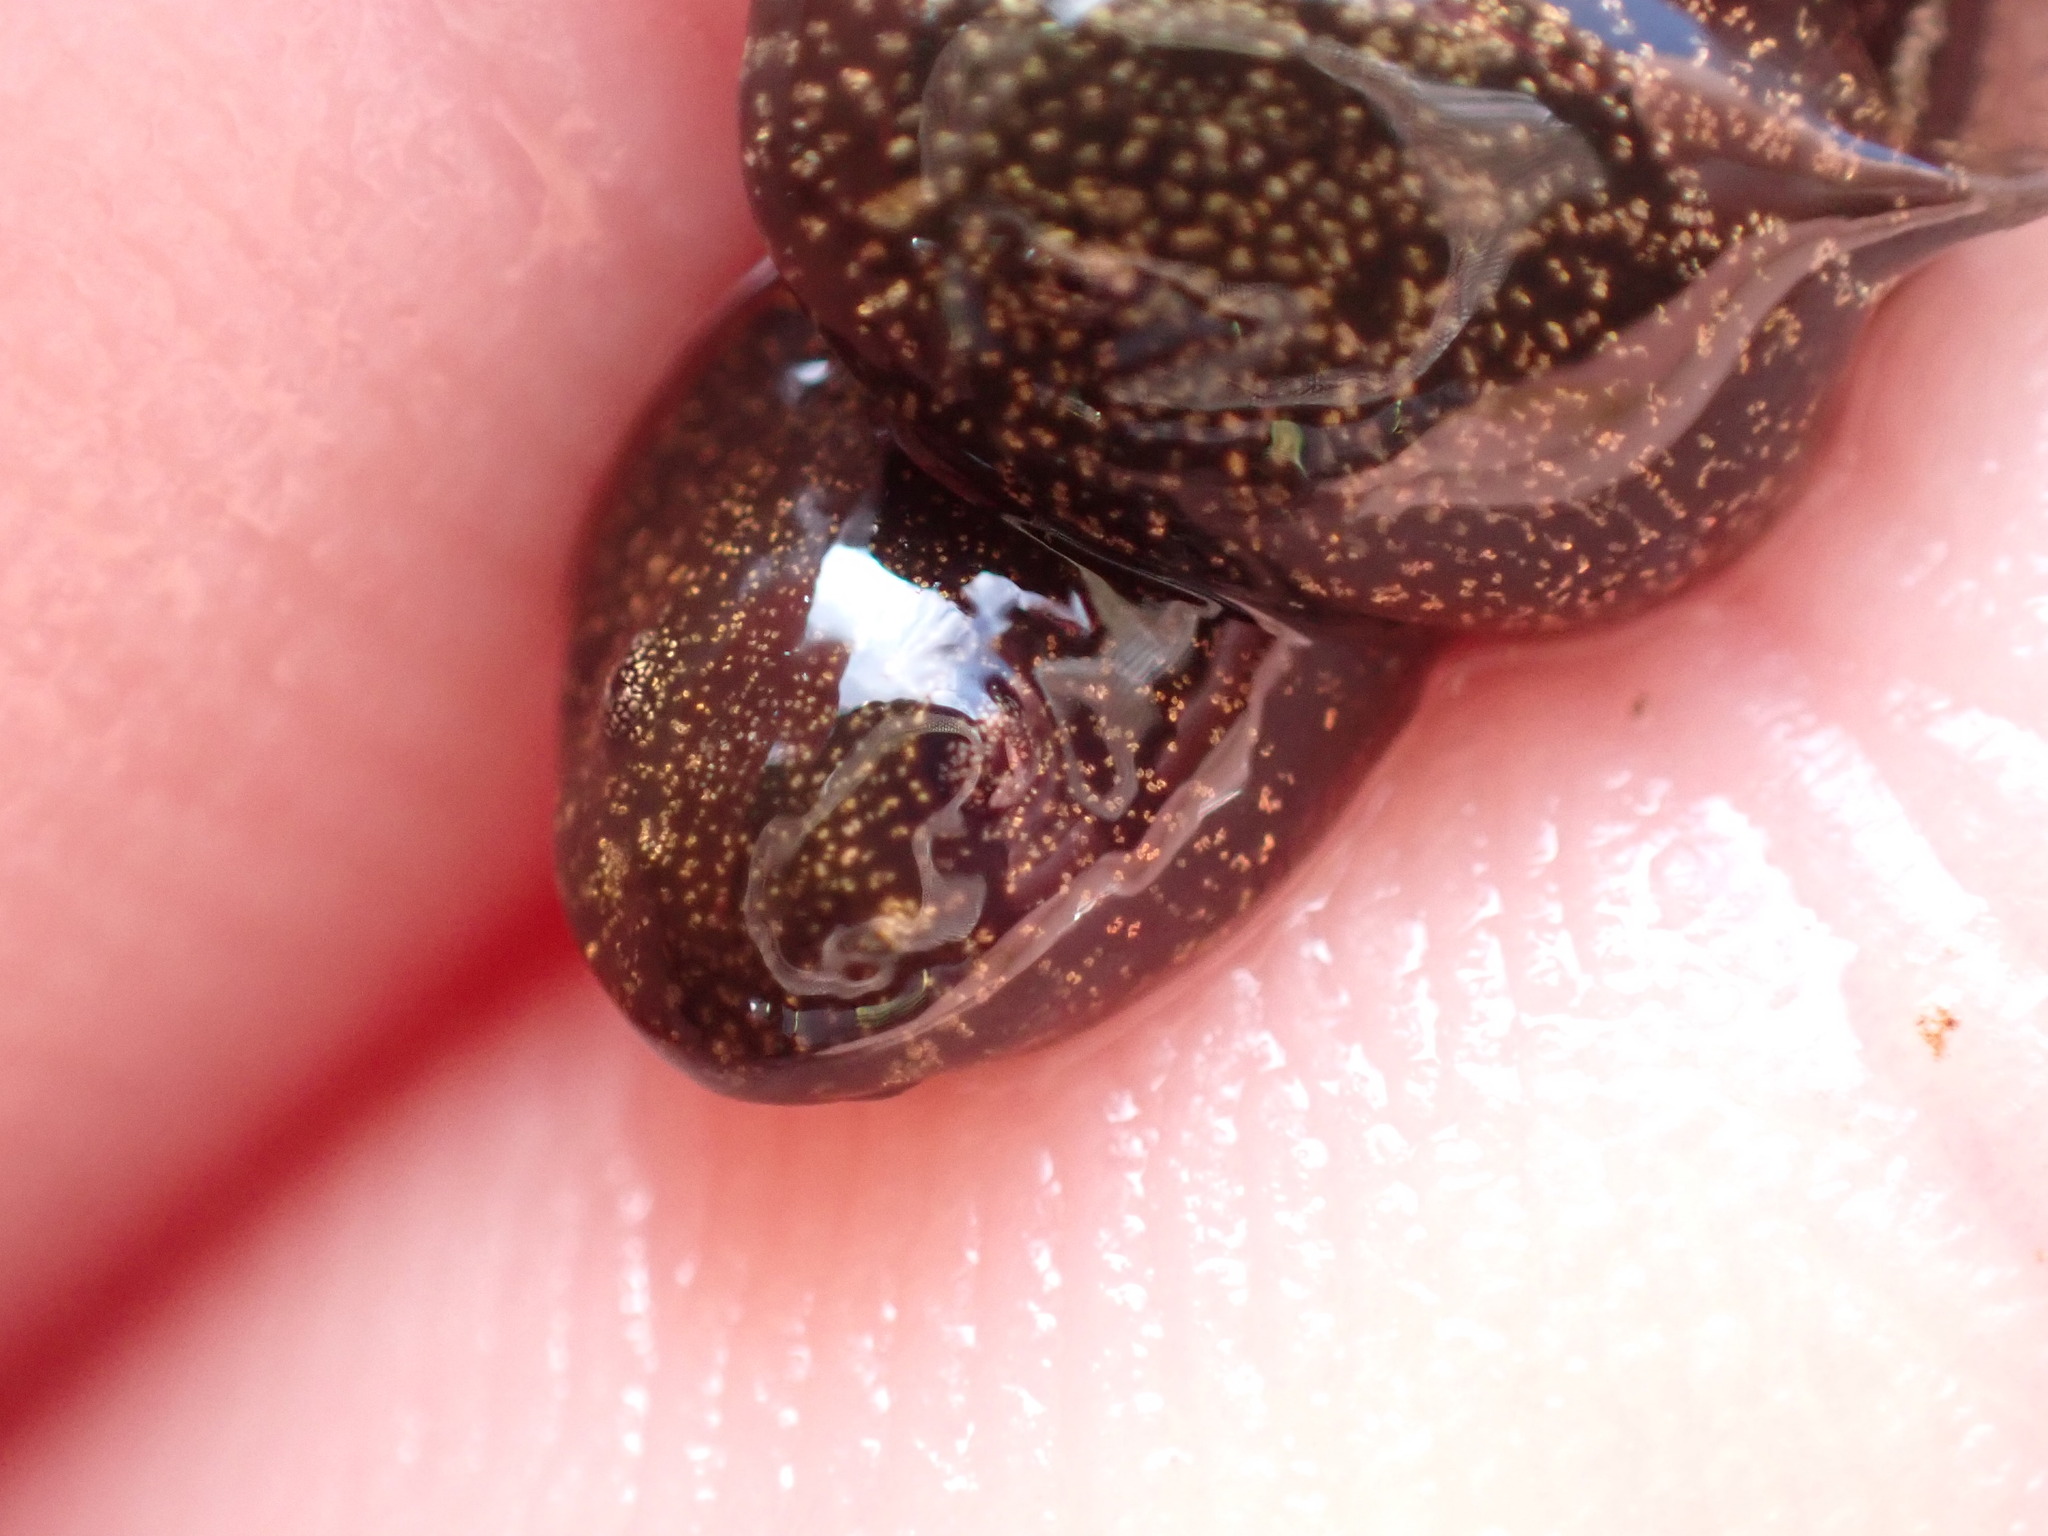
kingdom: Animalia
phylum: Chordata
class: Amphibia
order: Anura
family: Ranidae
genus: Rana
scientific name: Rana temporaria
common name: Common frog
